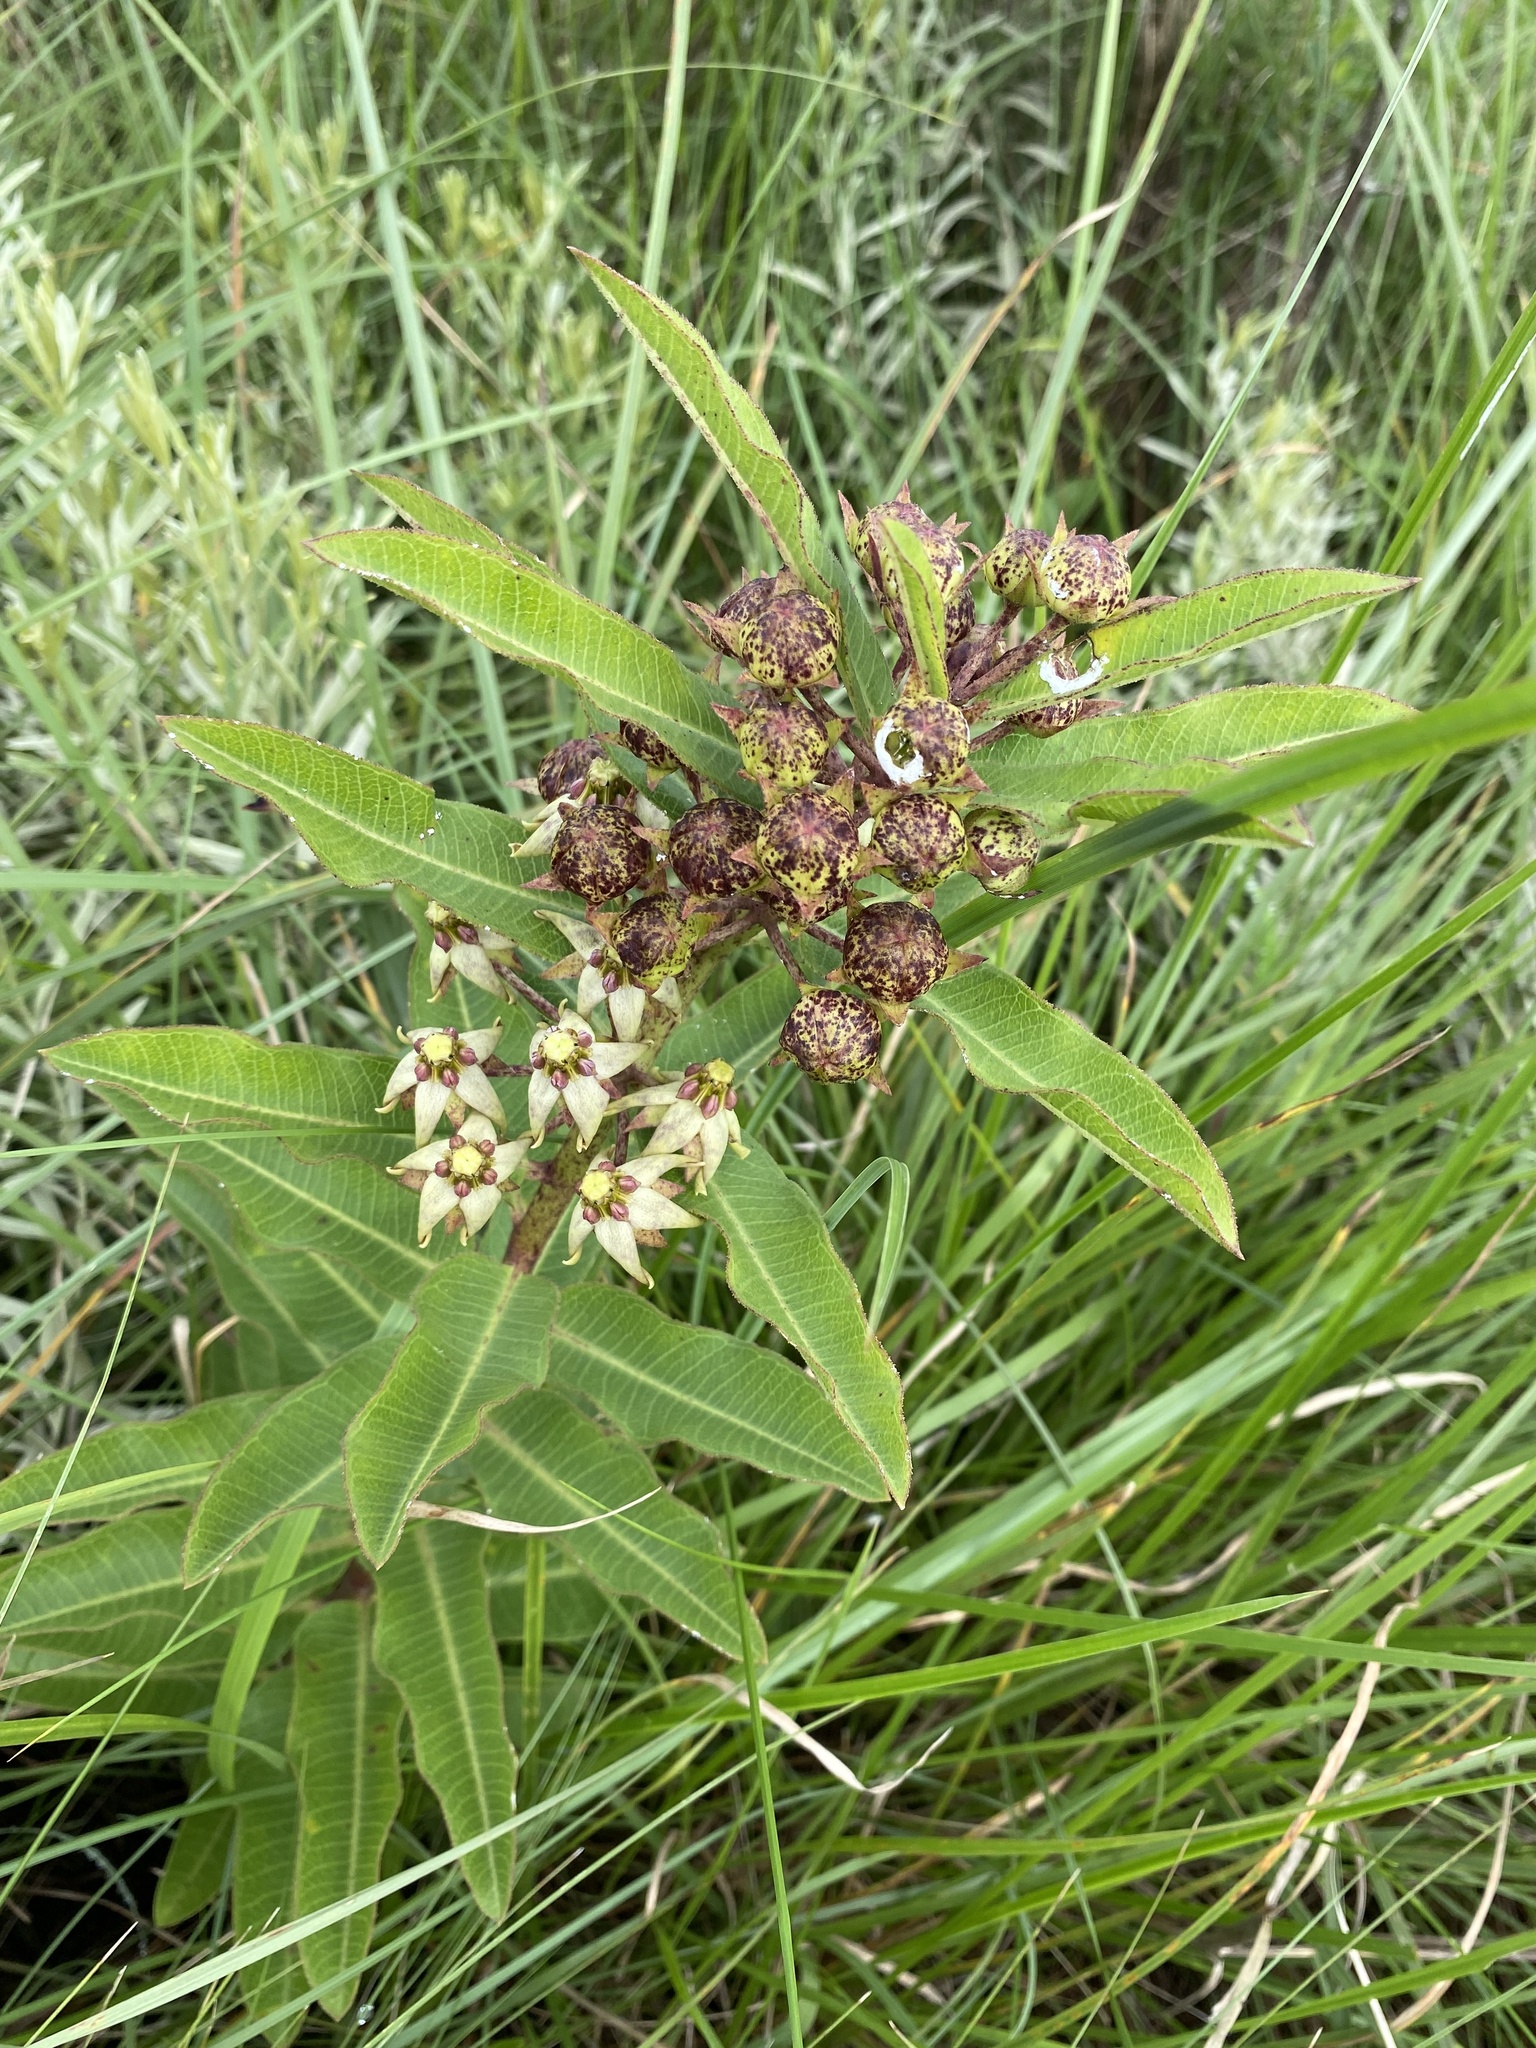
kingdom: Plantae
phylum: Tracheophyta
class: Magnoliopsida
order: Gentianales
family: Apocynaceae
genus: Pachycarpus
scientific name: Pachycarpus asperifolius
